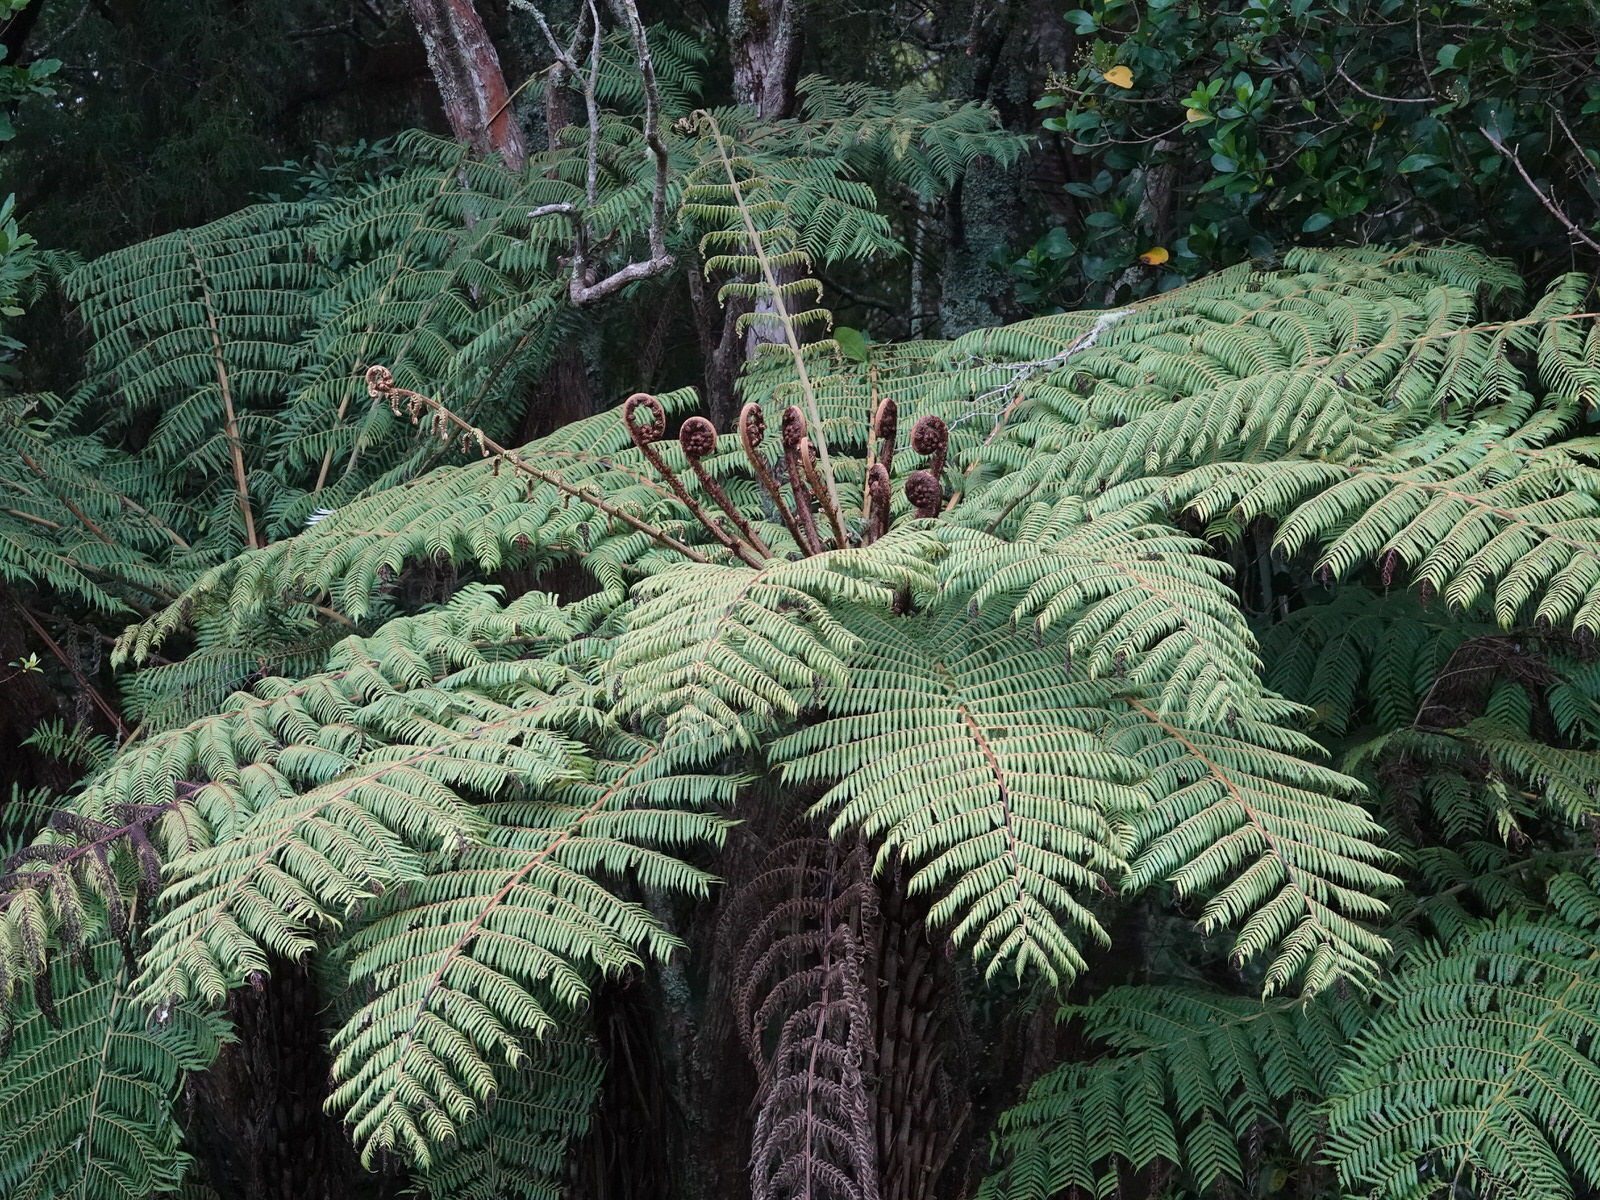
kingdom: Plantae
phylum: Tracheophyta
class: Polypodiopsida
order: Cyatheales
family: Cyatheaceae
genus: Alsophila
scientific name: Alsophila dealbata
